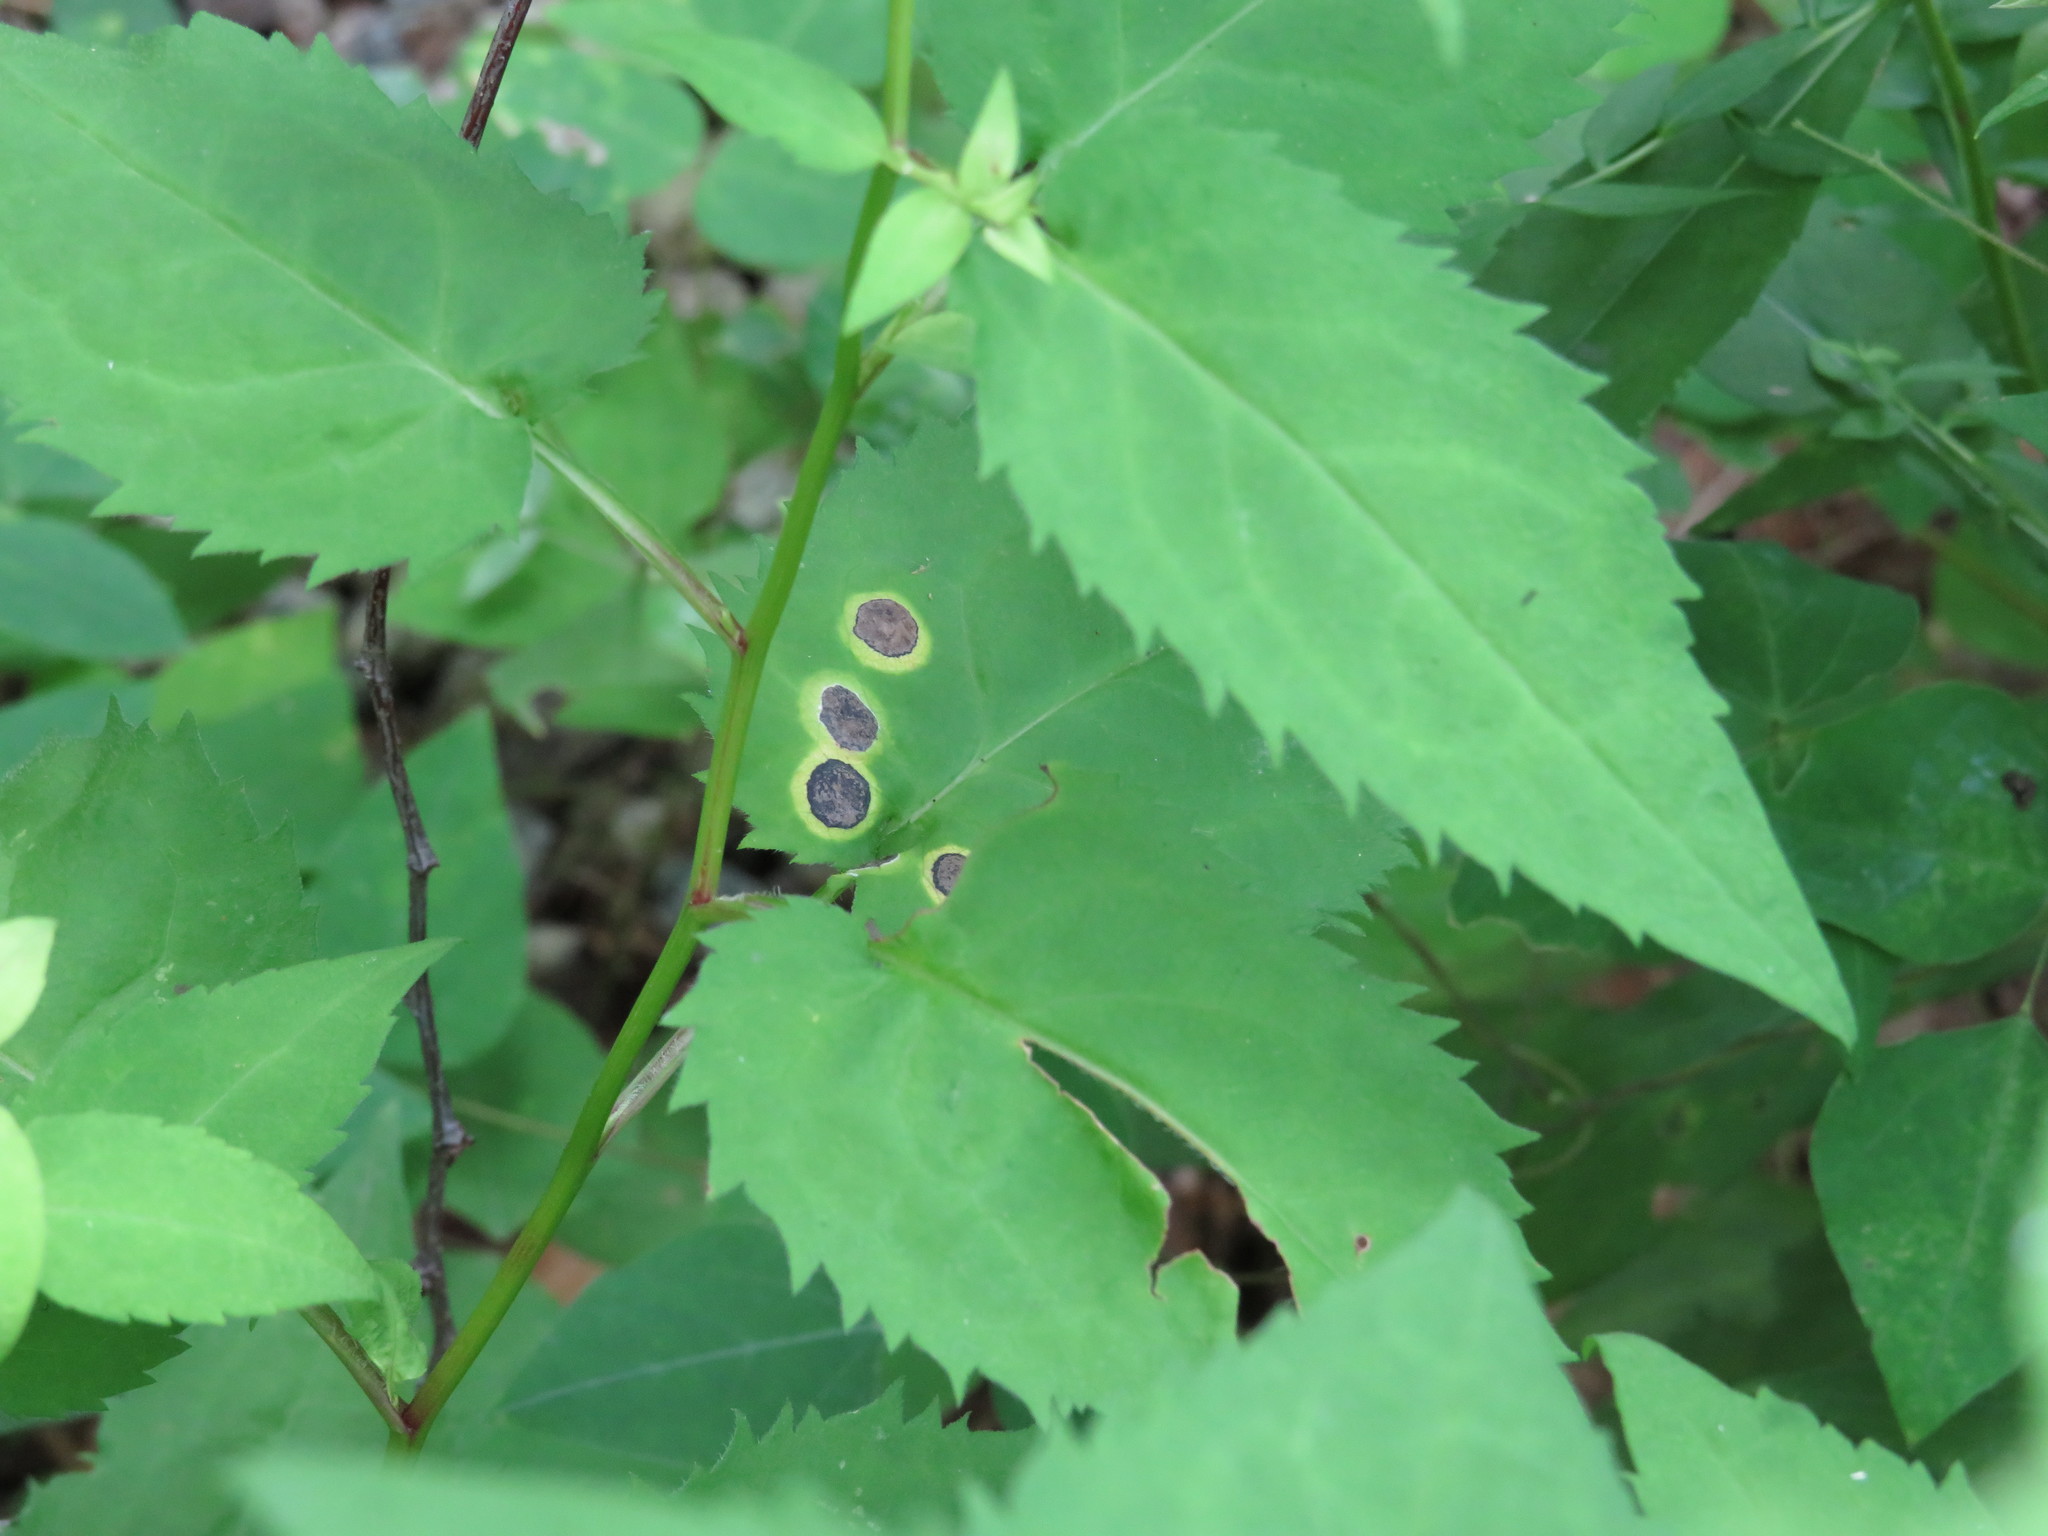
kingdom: Animalia
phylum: Arthropoda
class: Insecta
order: Diptera
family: Cecidomyiidae
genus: Asteromyia
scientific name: Asteromyia carbonifera
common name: Carbonifera goldenrod gall midge
